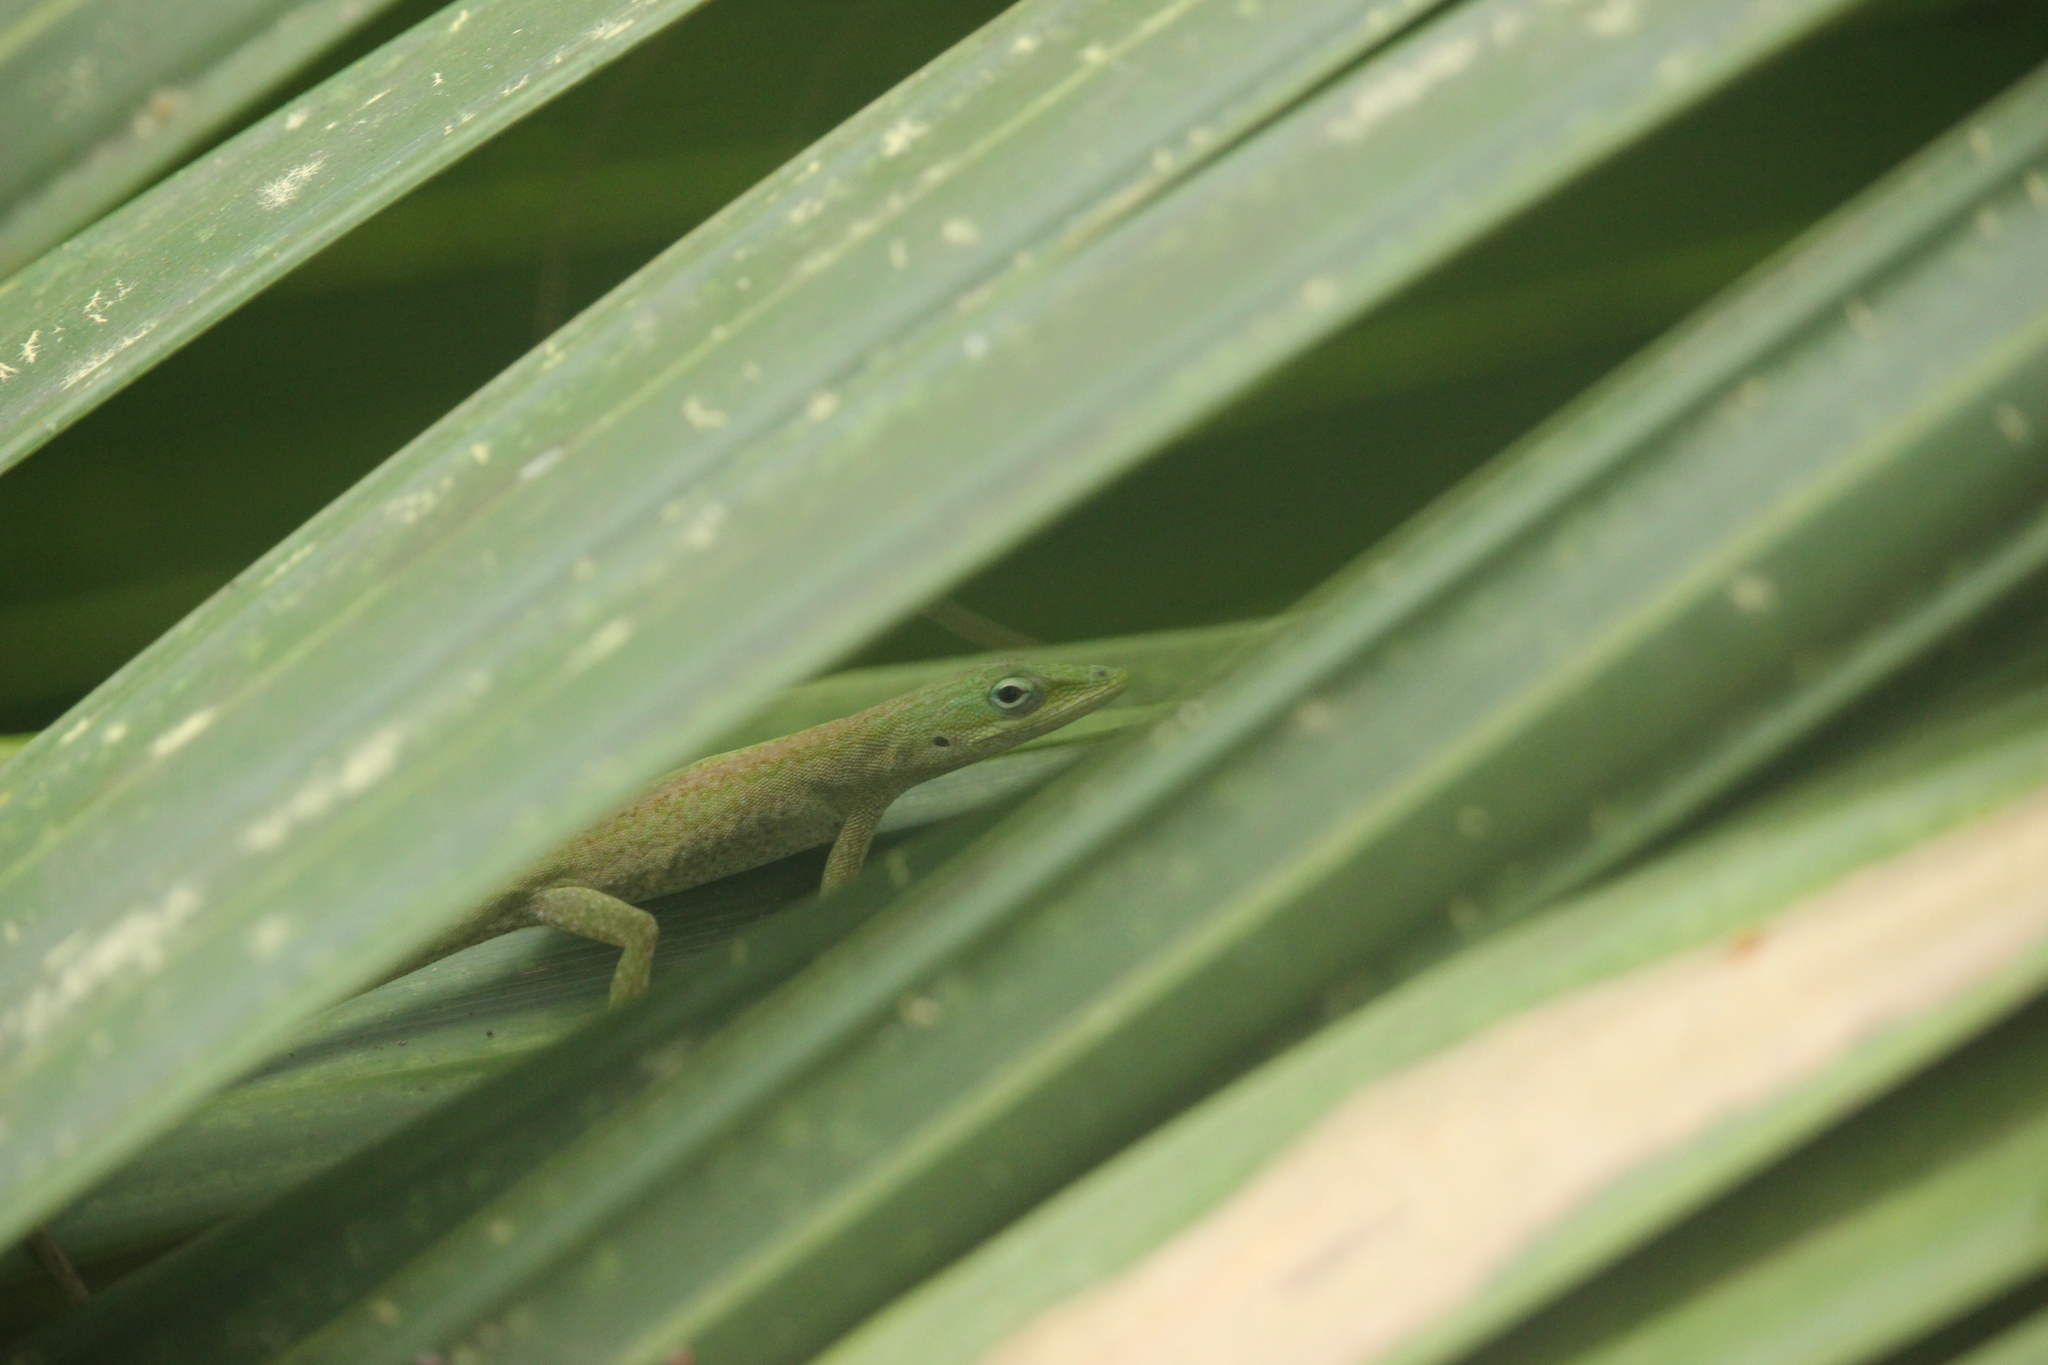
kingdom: Animalia
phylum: Chordata
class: Squamata
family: Dactyloidae
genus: Anolis
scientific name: Anolis carolinensis
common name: Green anole
